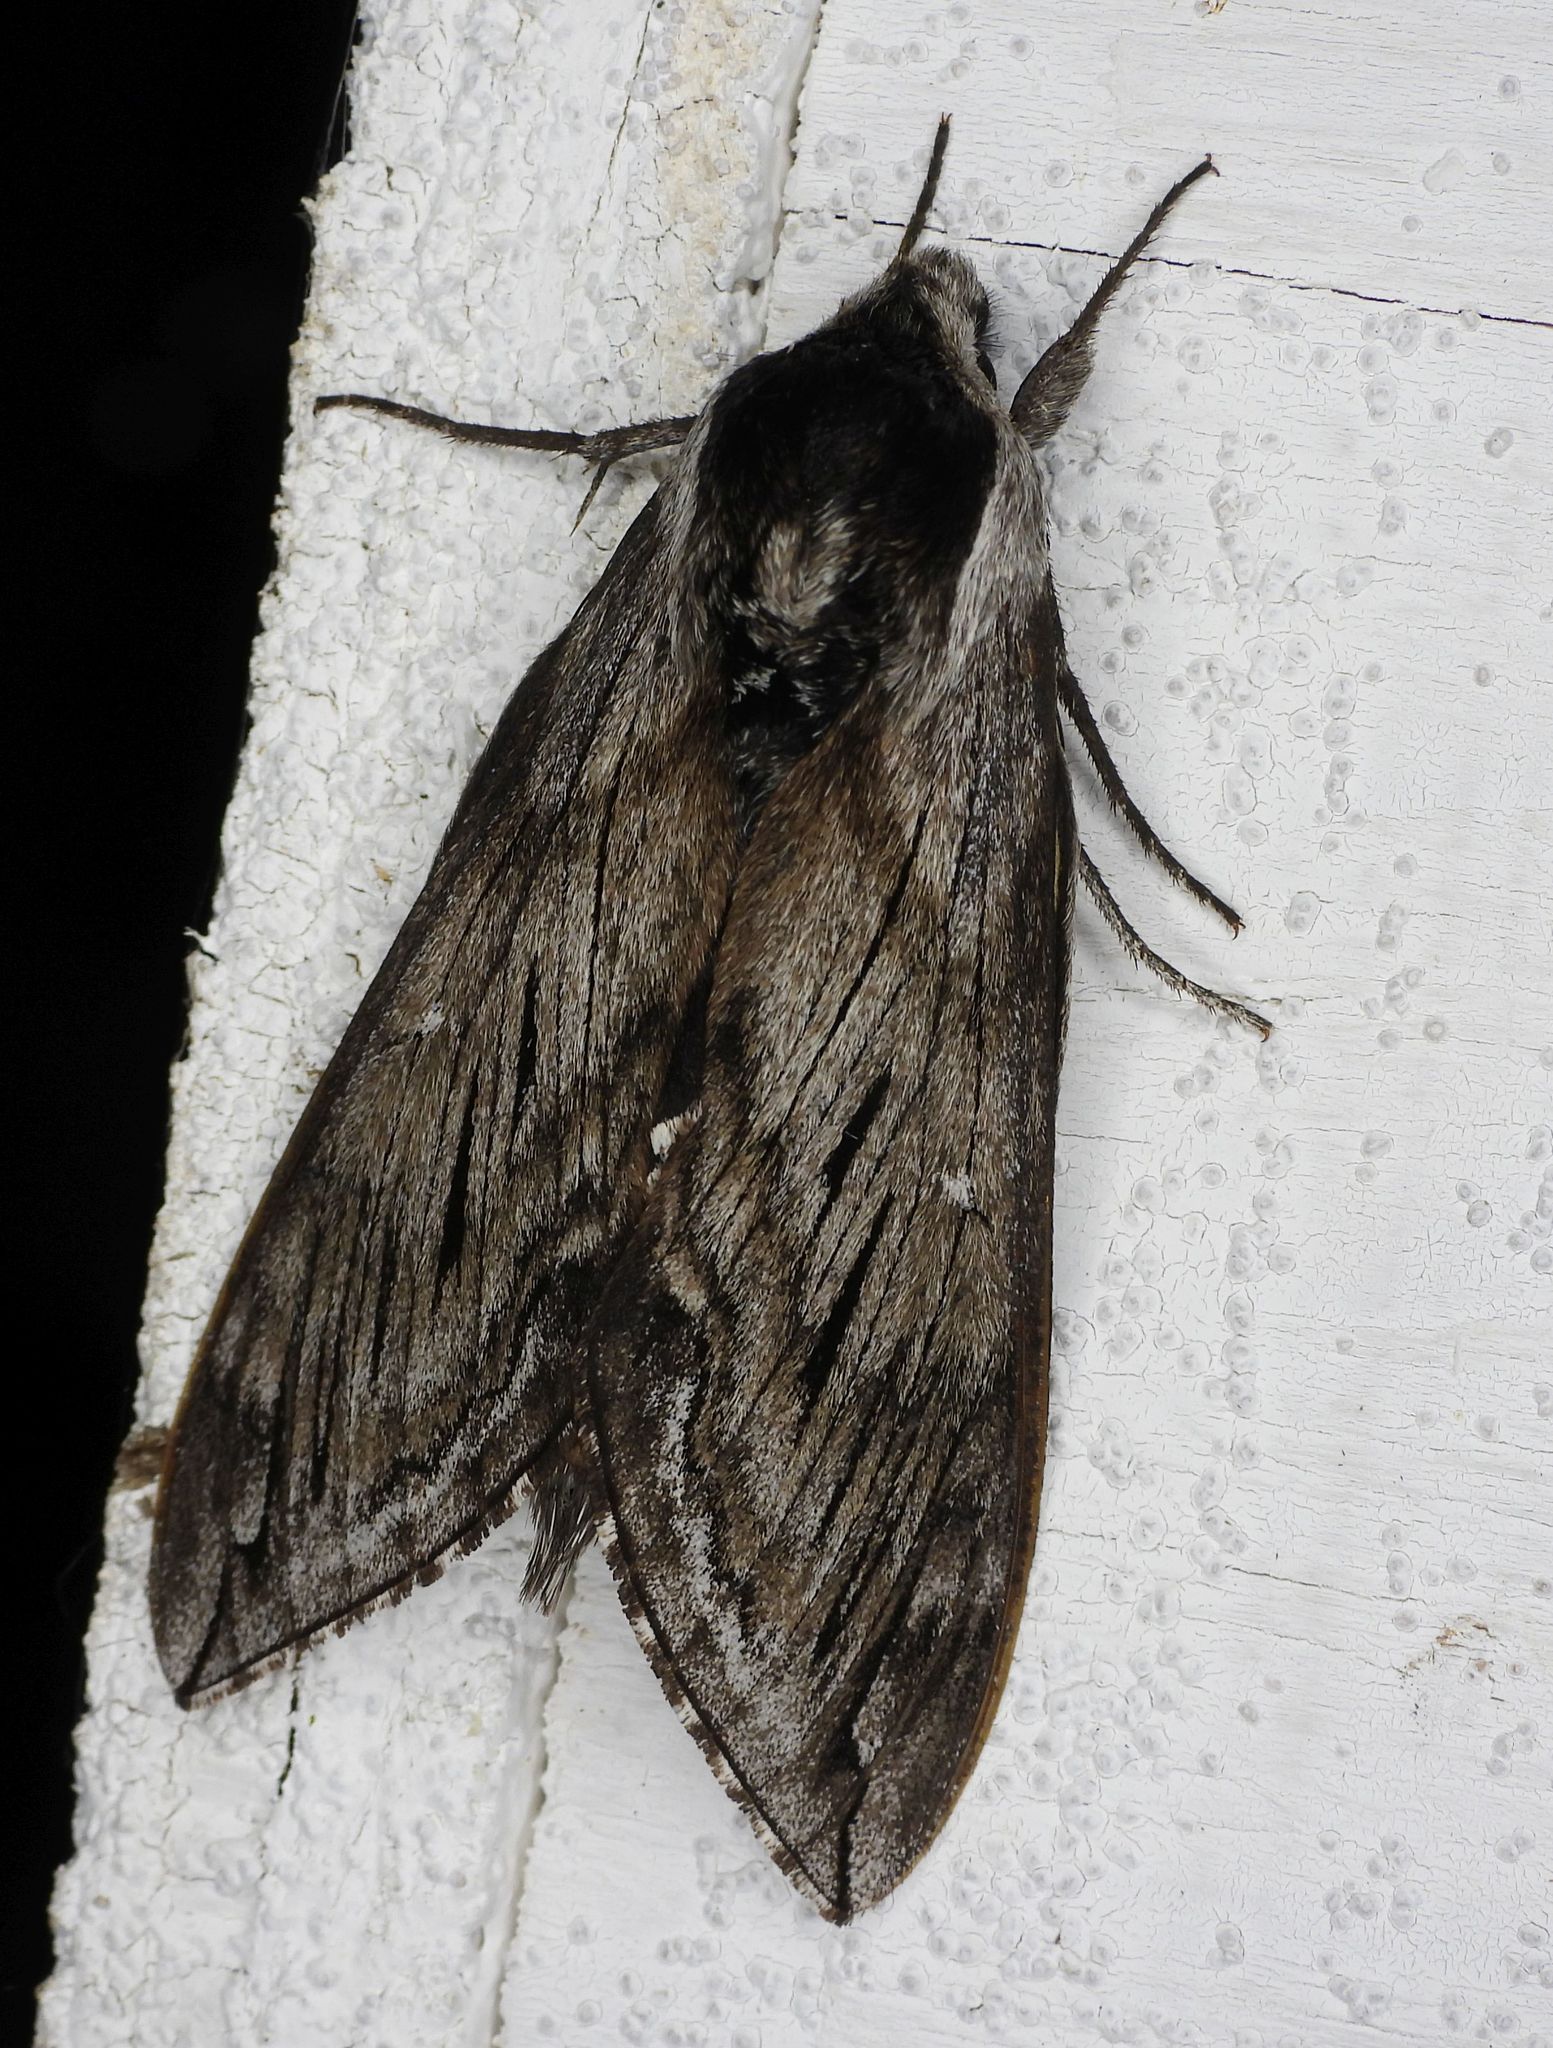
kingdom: Animalia
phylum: Arthropoda
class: Insecta
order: Lepidoptera
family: Sphingidae
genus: Sphinx
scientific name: Sphinx poecila
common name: Northern apple sphinx
